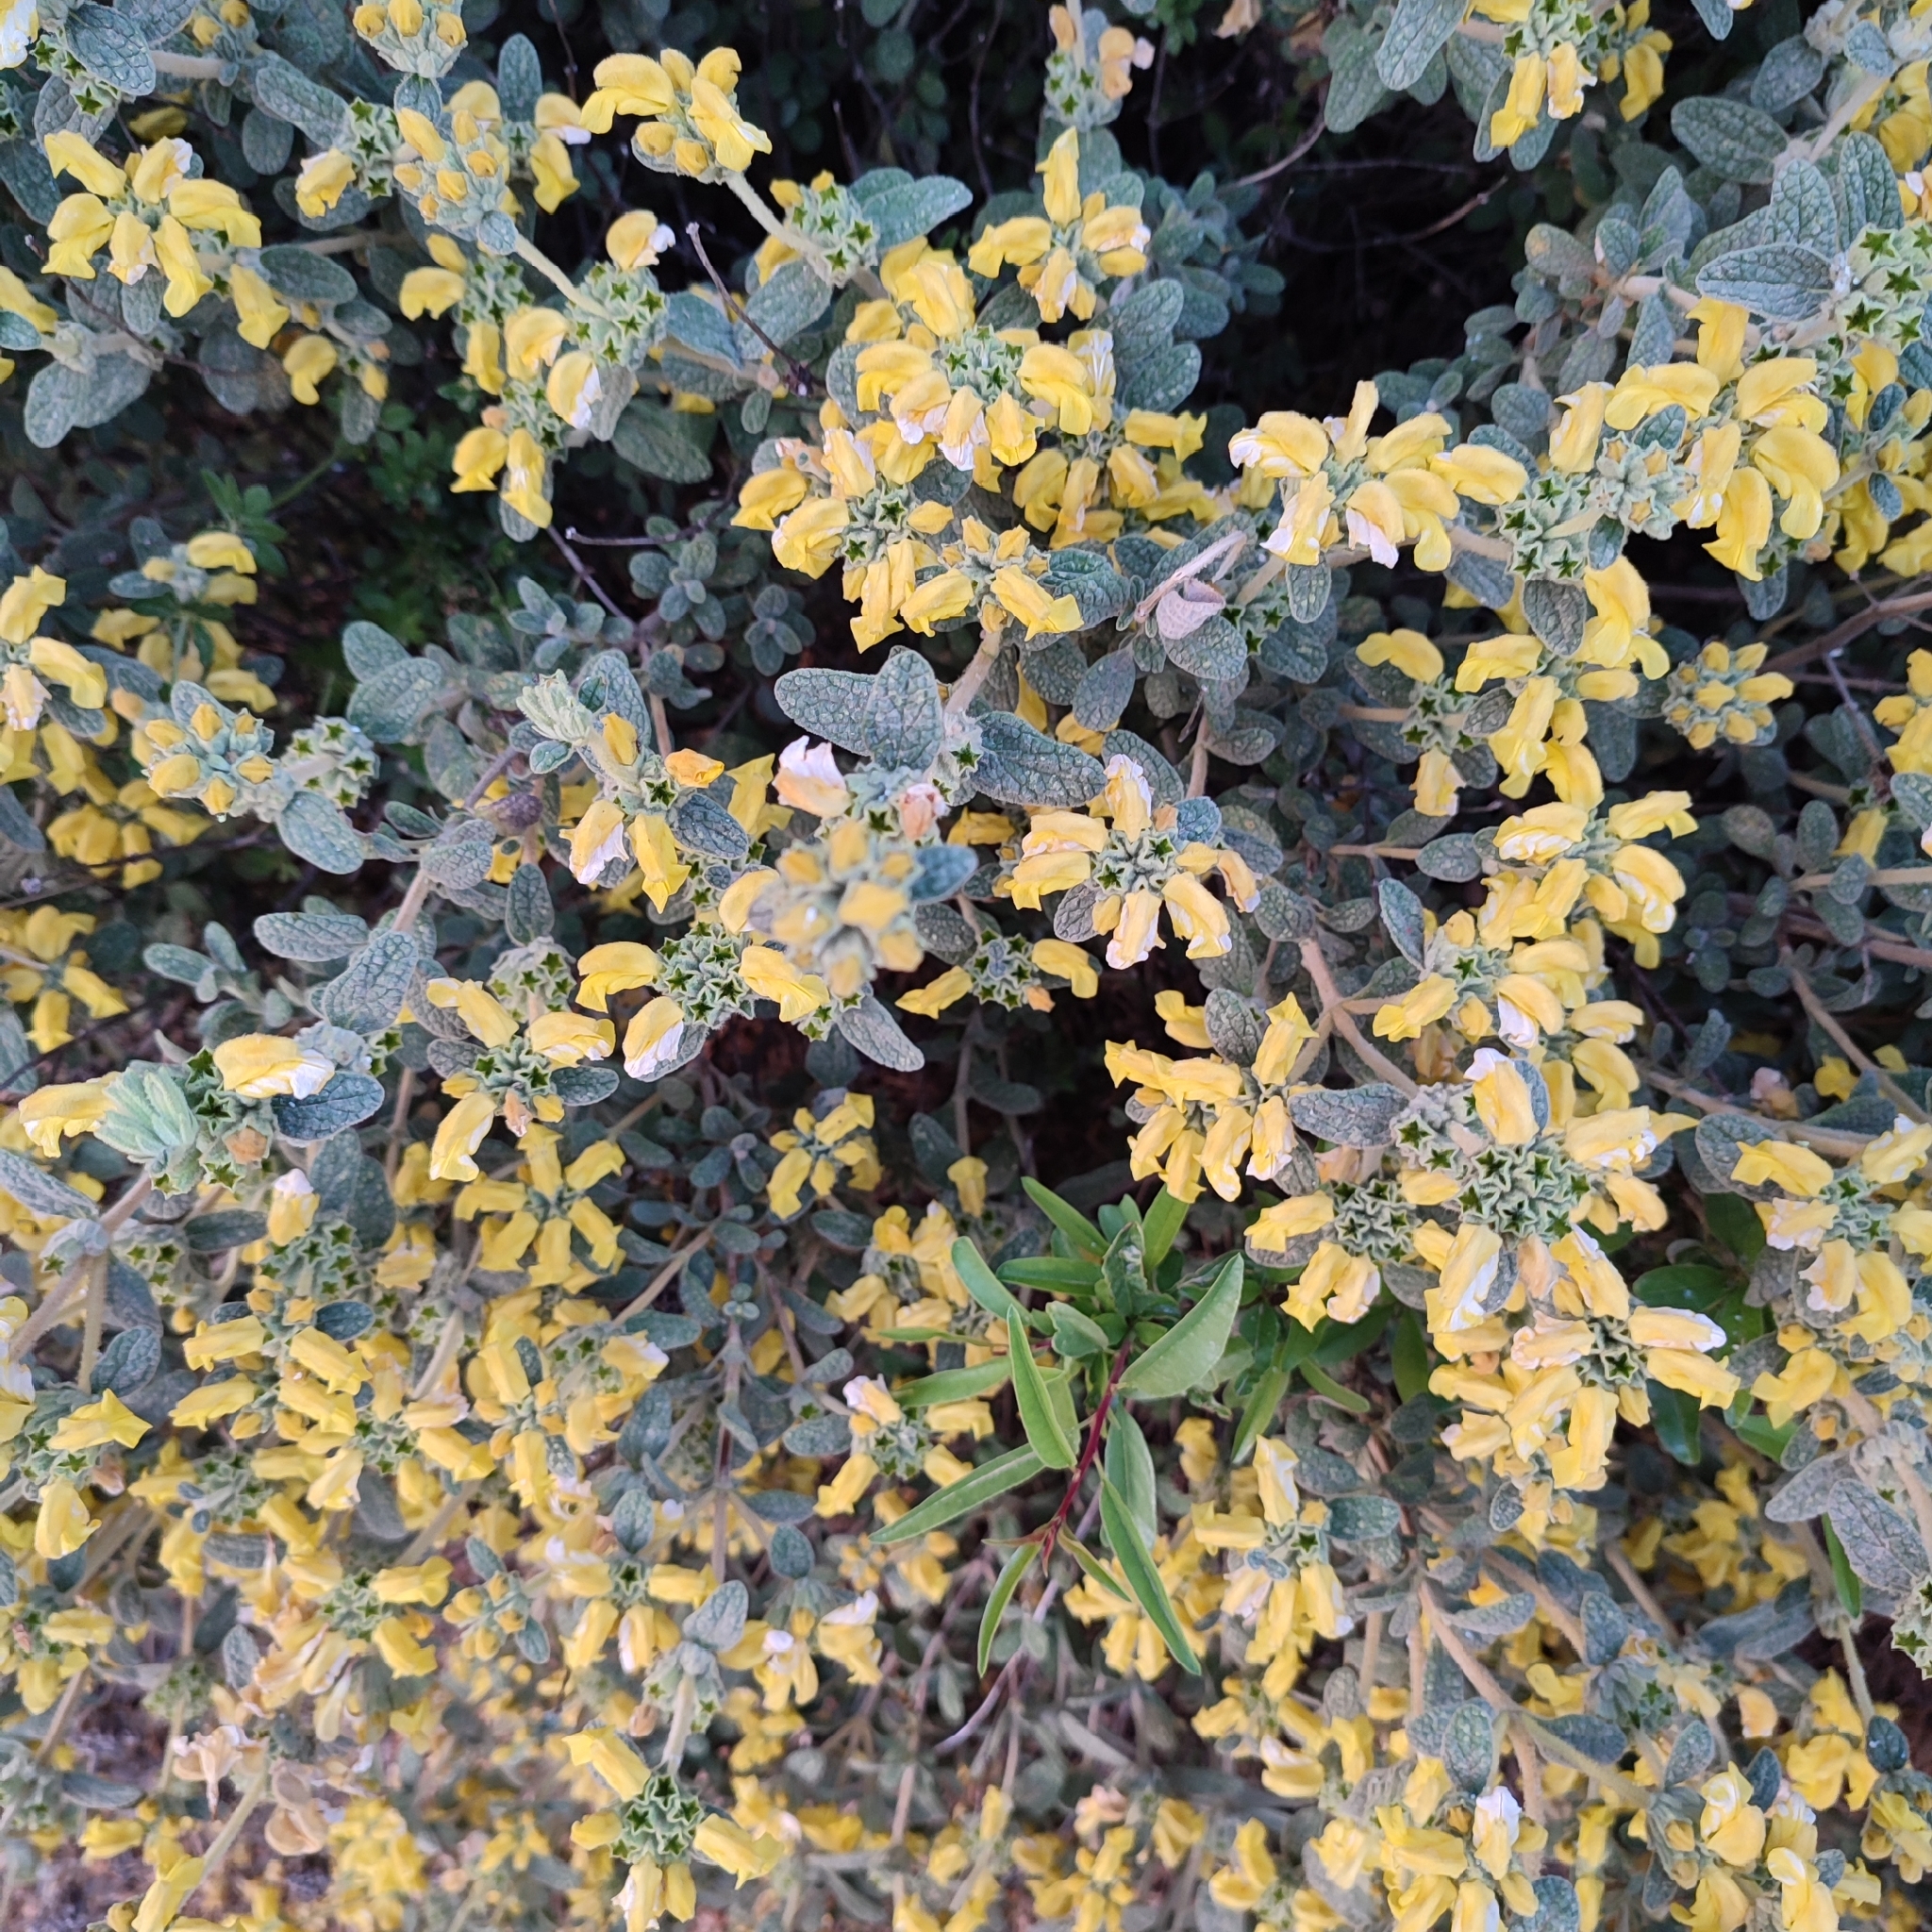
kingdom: Plantae
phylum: Tracheophyta
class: Magnoliopsida
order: Lamiales
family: Lamiaceae
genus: Phlomis
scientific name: Phlomis lanata
